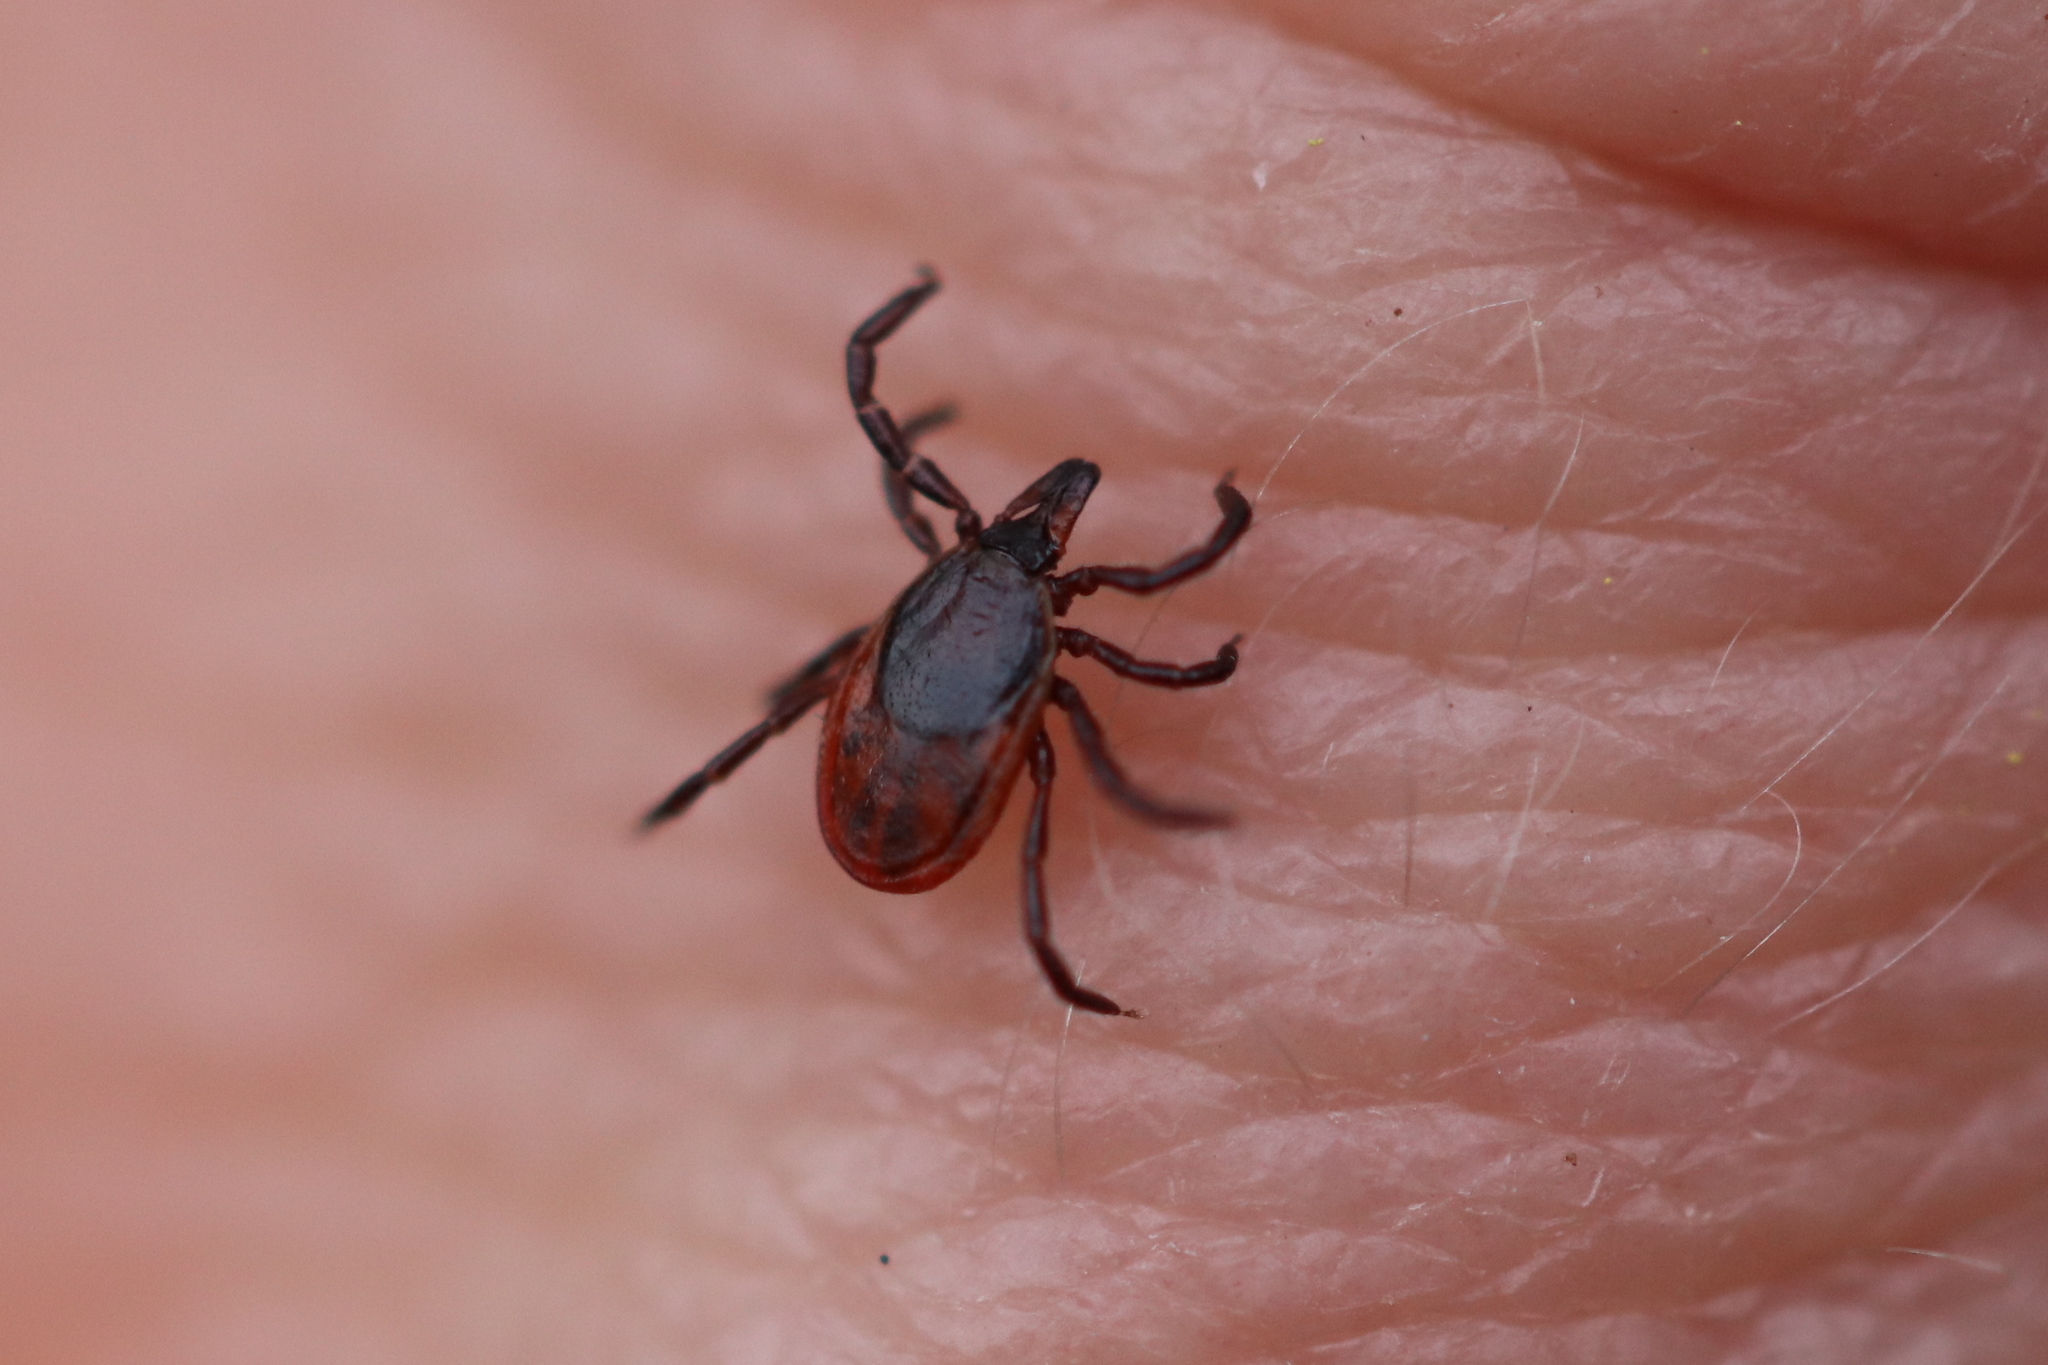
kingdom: Animalia
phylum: Arthropoda
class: Arachnida
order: Ixodida
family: Ixodidae
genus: Ixodes
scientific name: Ixodes persulcatus
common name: Taiga tick
